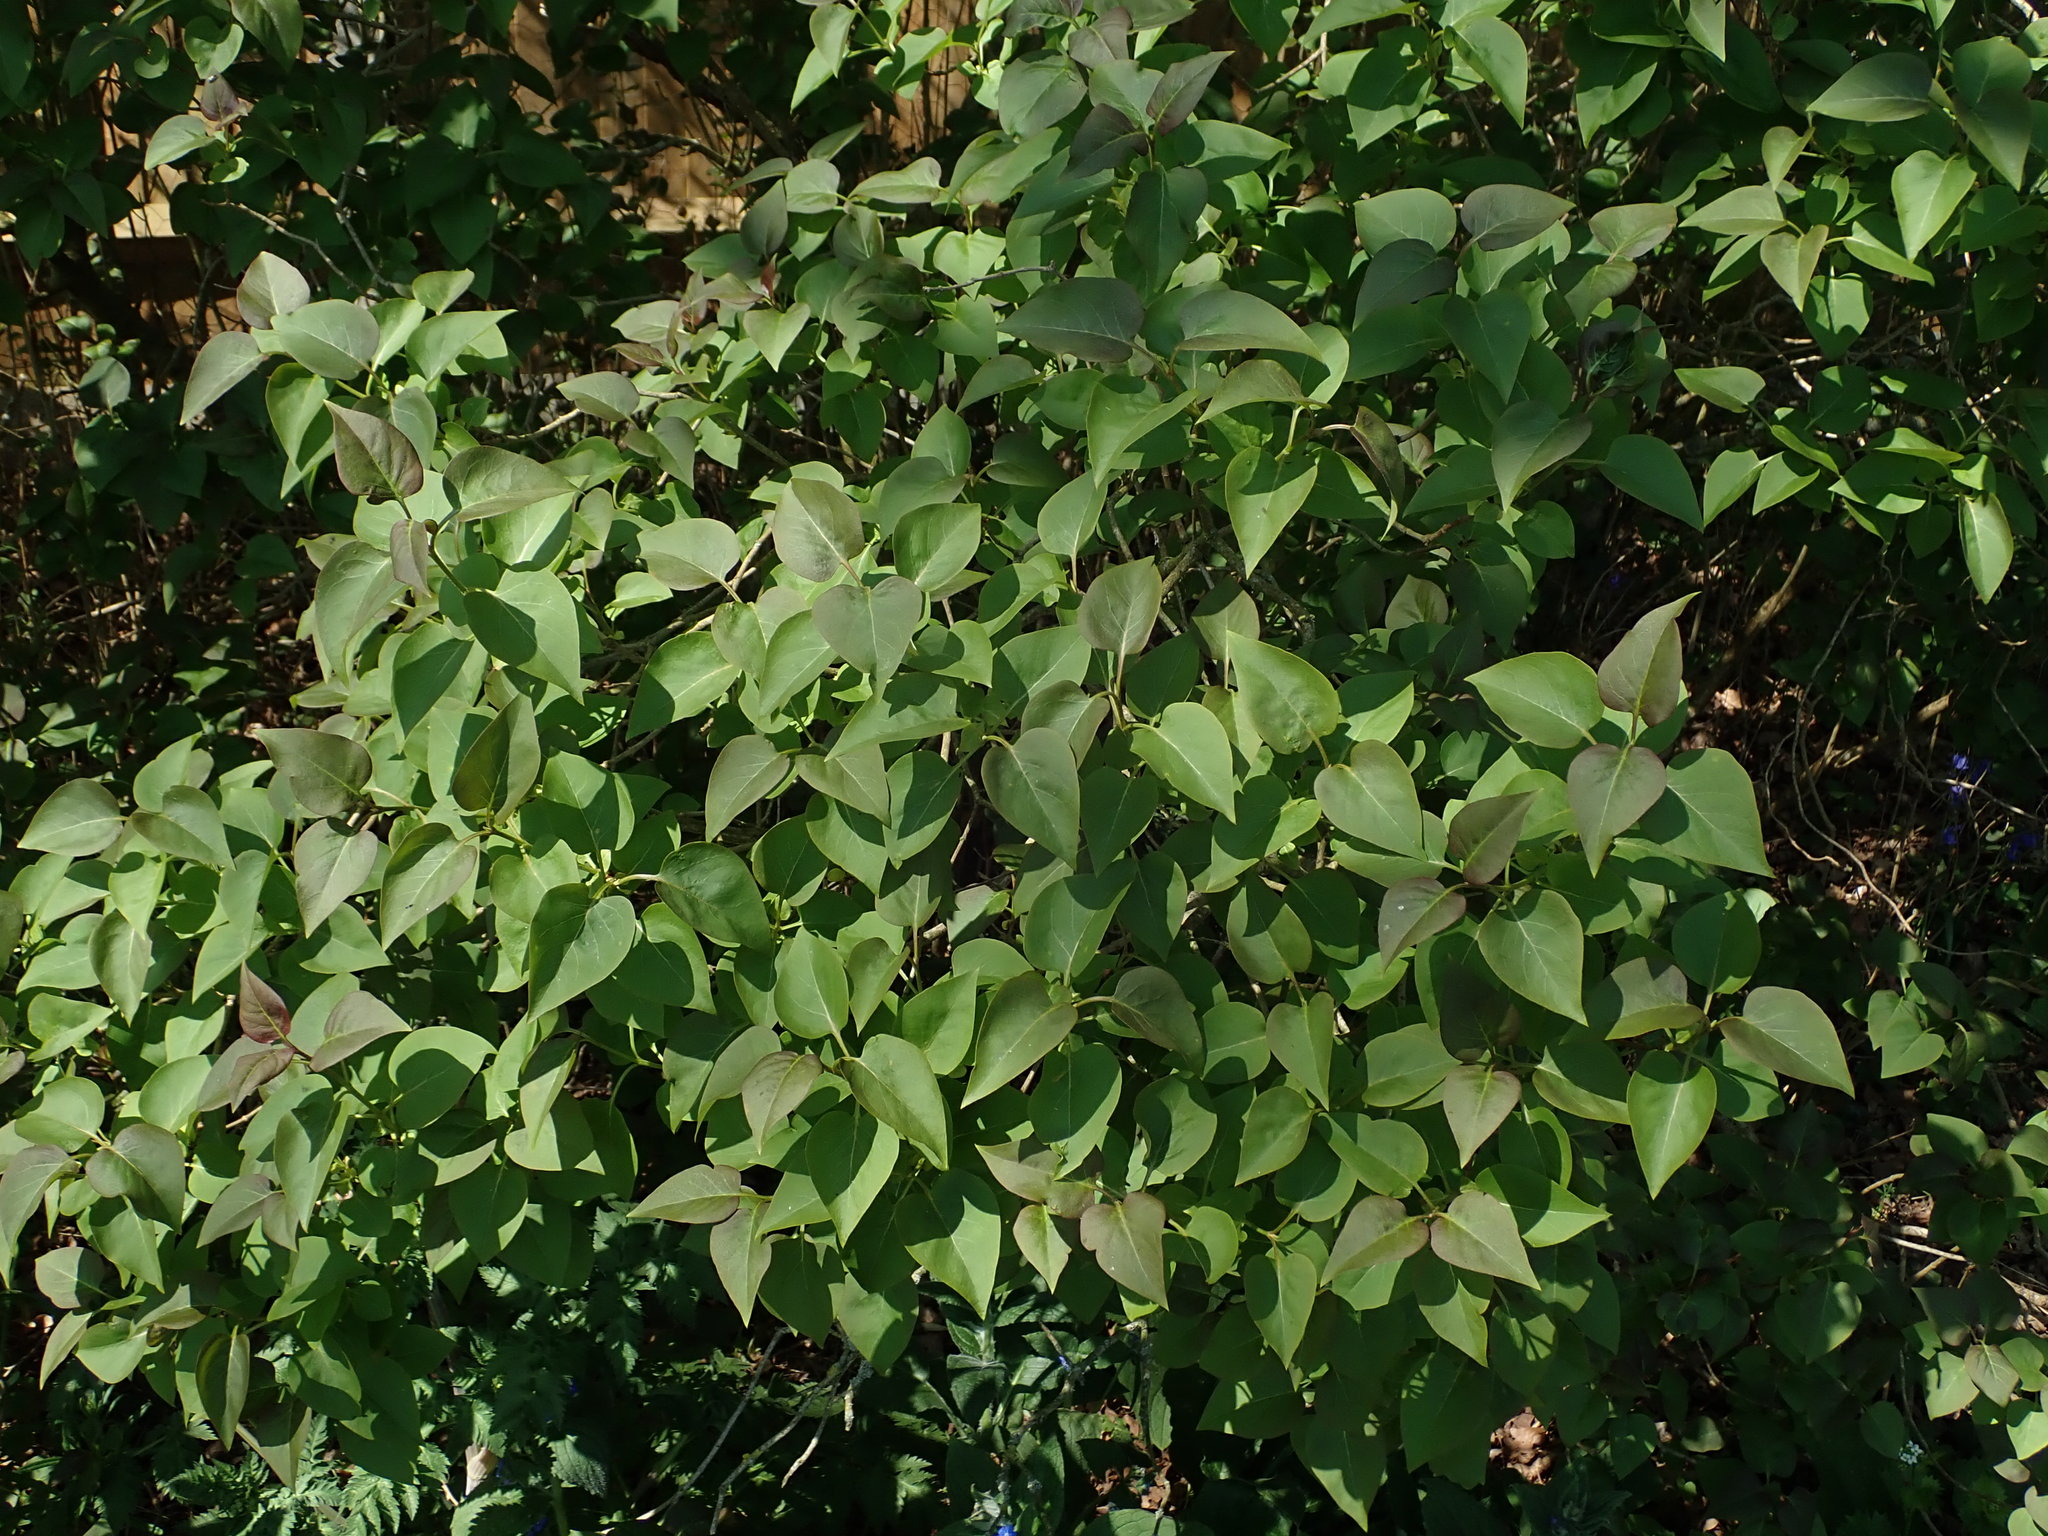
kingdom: Plantae
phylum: Tracheophyta
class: Magnoliopsida
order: Lamiales
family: Oleaceae
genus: Syringa
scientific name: Syringa vulgaris
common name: Common lilac
